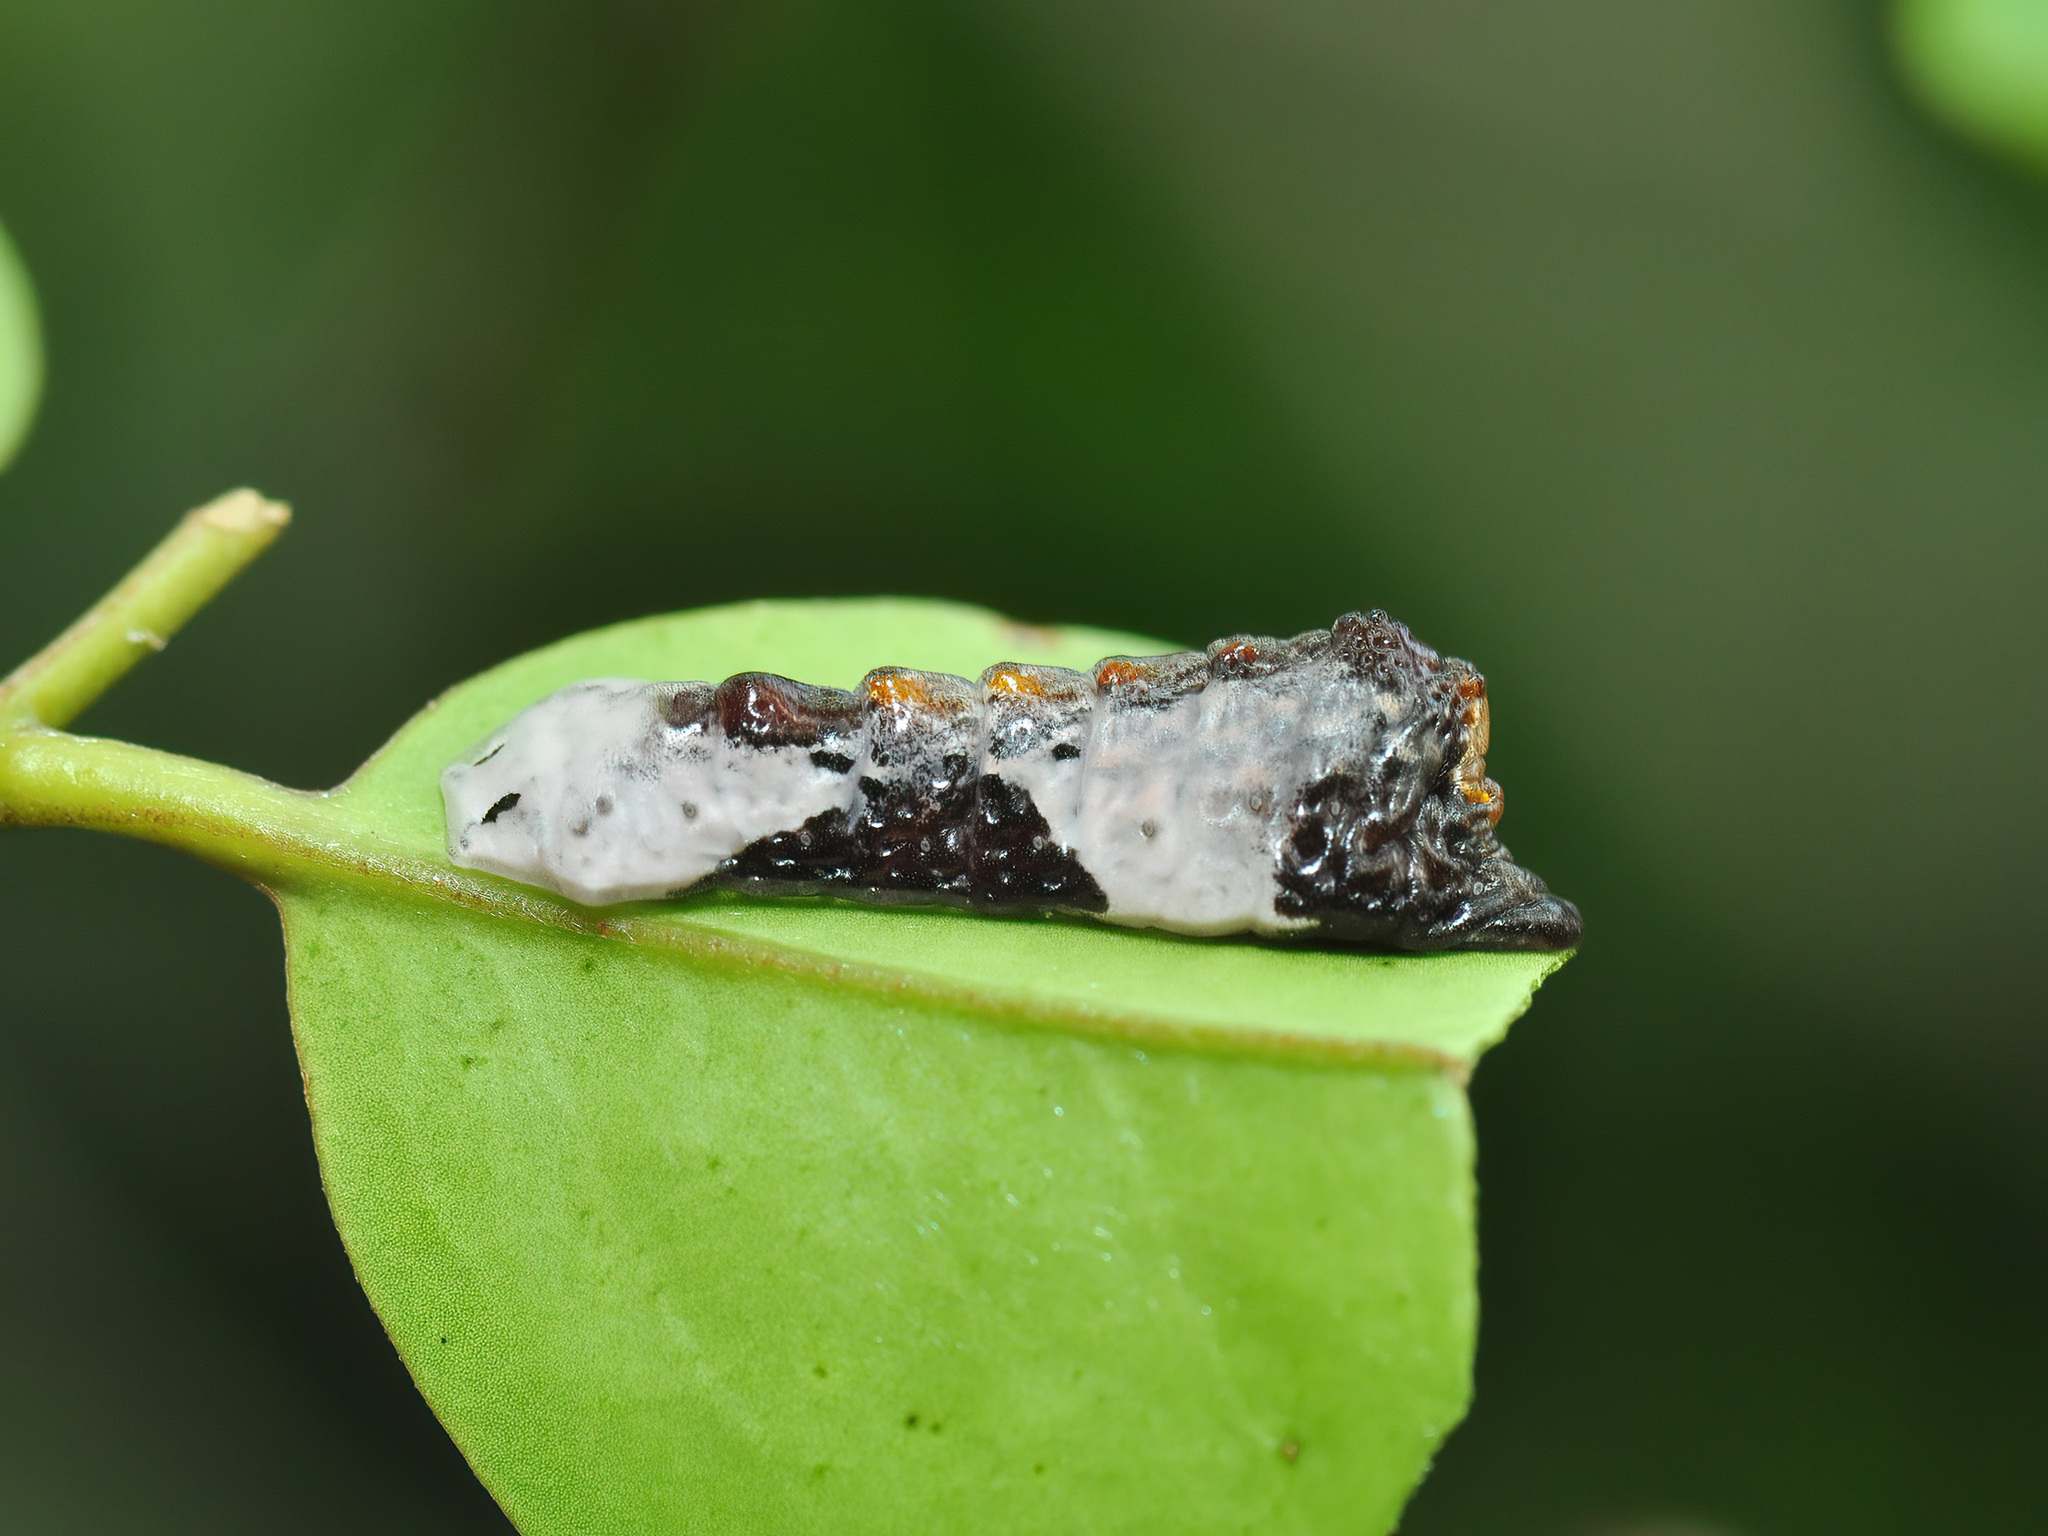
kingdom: Animalia
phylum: Arthropoda
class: Insecta
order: Lepidoptera
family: Lycaenidae
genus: Tajuria
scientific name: Tajuria cippus
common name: Peacock royal
